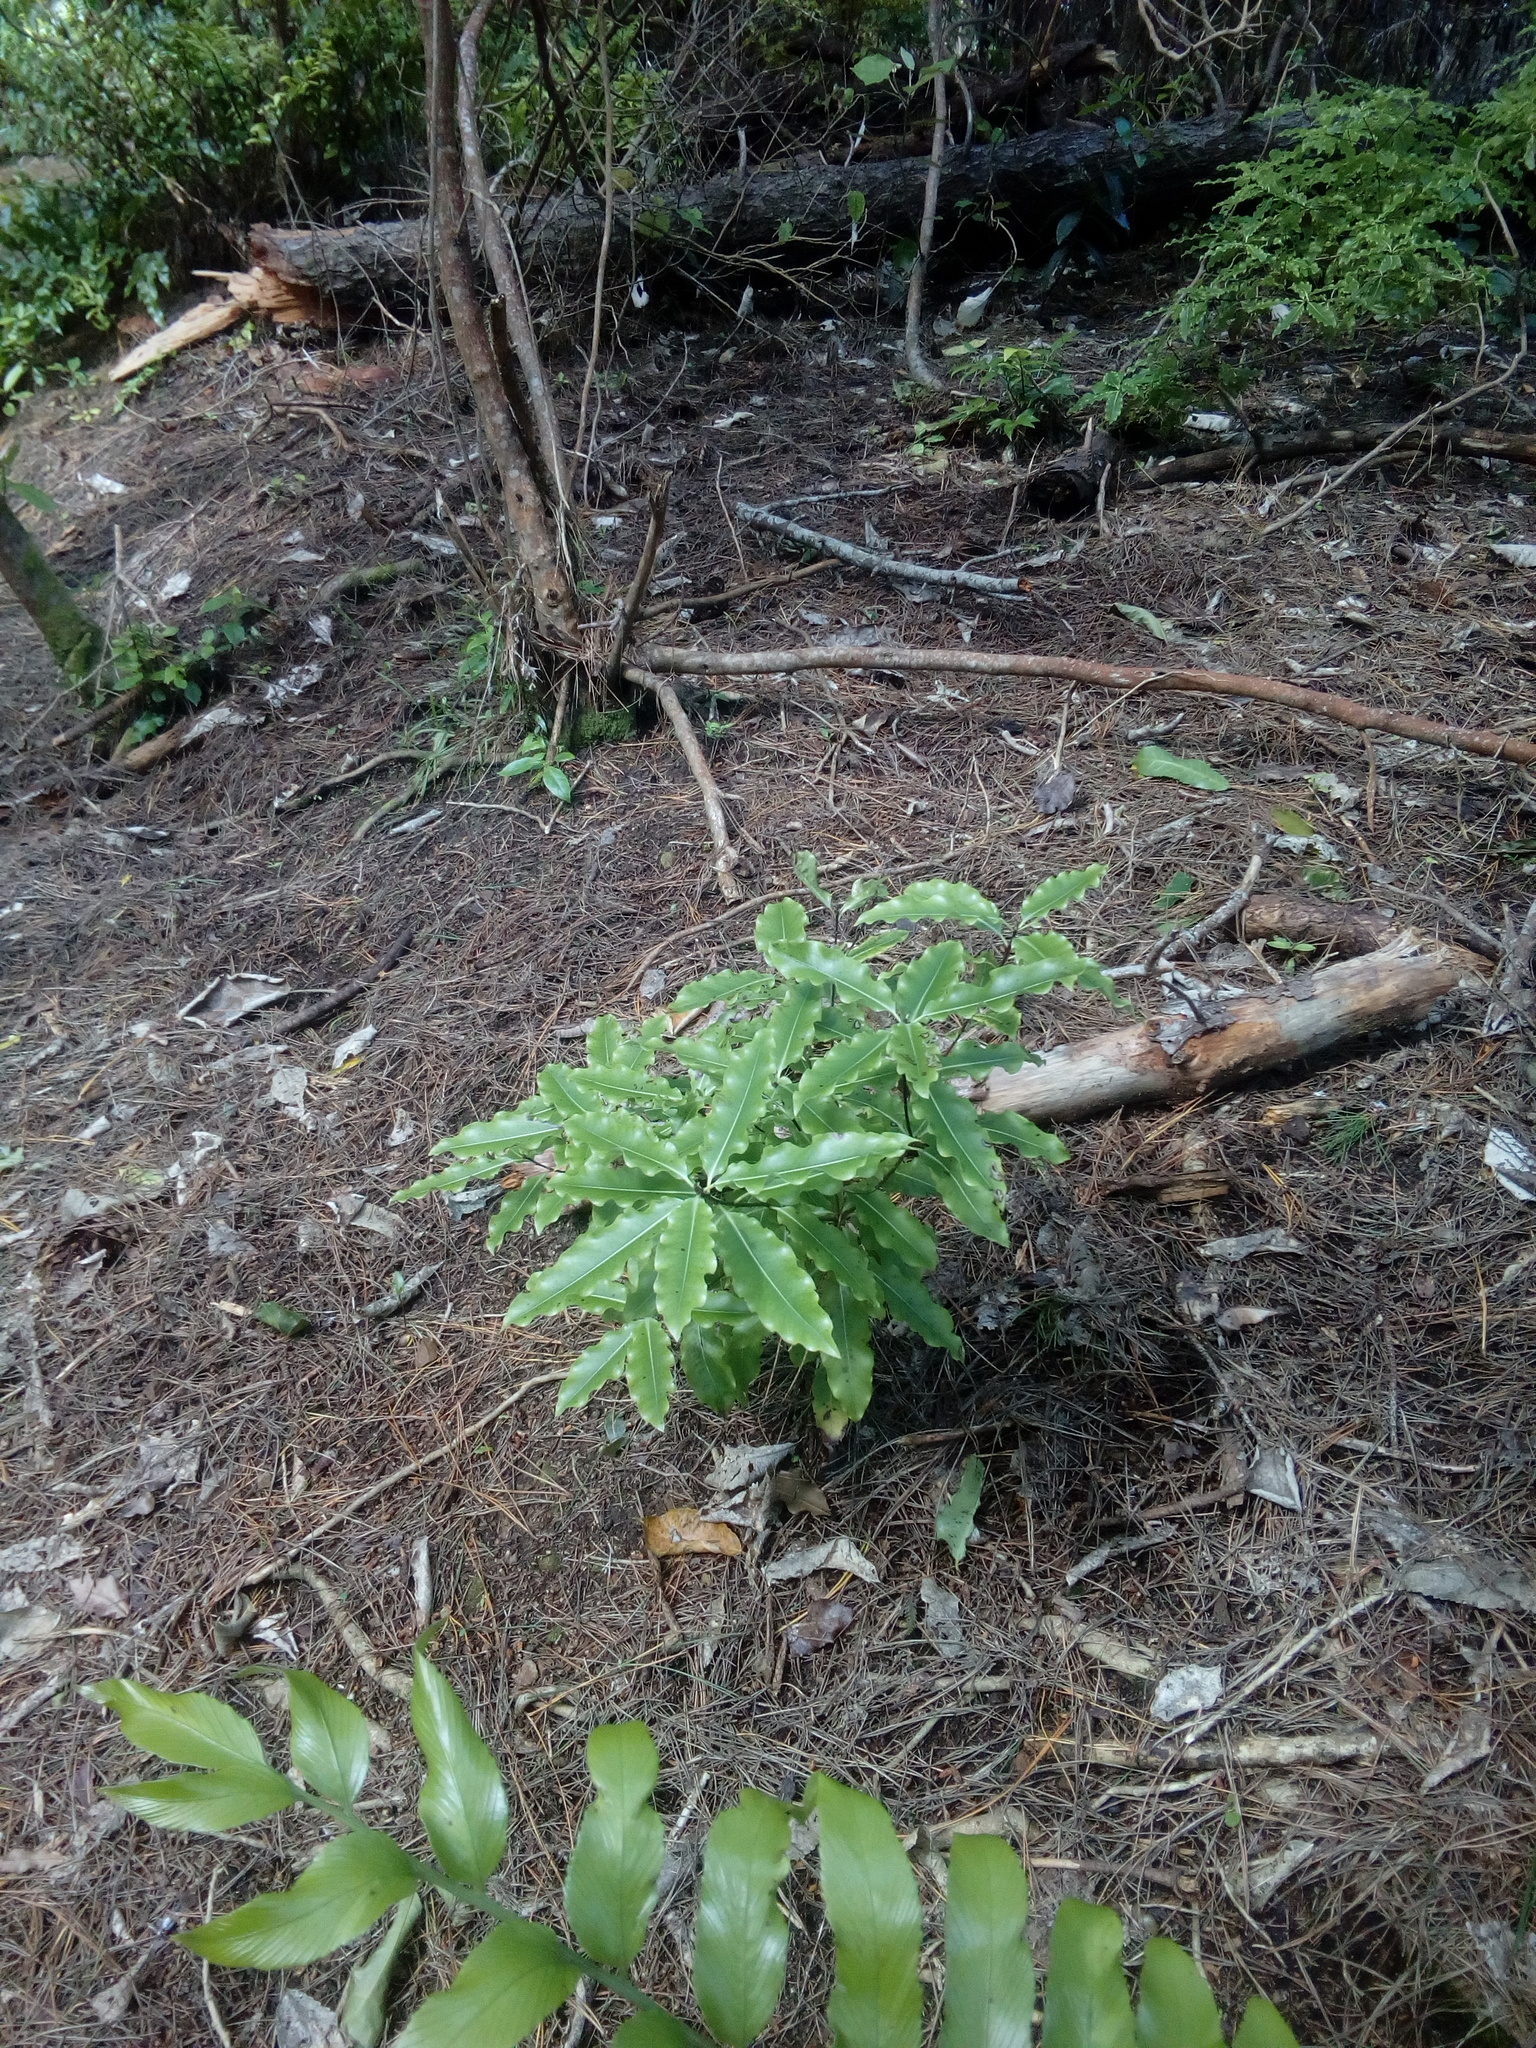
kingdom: Plantae
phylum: Tracheophyta
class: Magnoliopsida
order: Apiales
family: Pittosporaceae
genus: Pittosporum
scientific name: Pittosporum eugenioides
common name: Lemonwood
